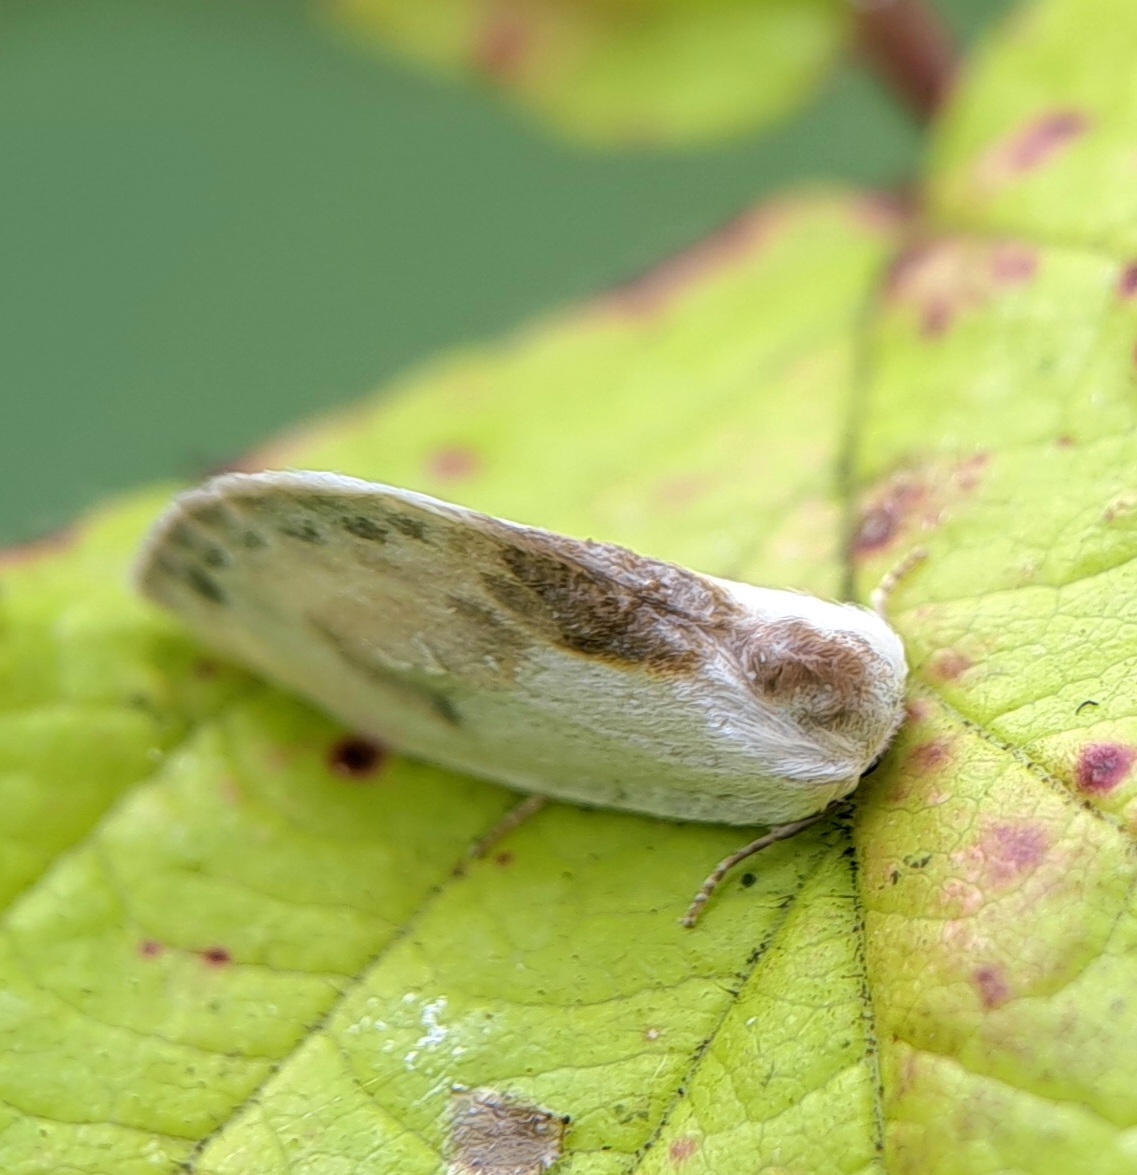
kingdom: Animalia
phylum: Arthropoda
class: Insecta
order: Lepidoptera
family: Drepanidae
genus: Cilix
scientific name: Cilix glaucata
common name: Chinese character
